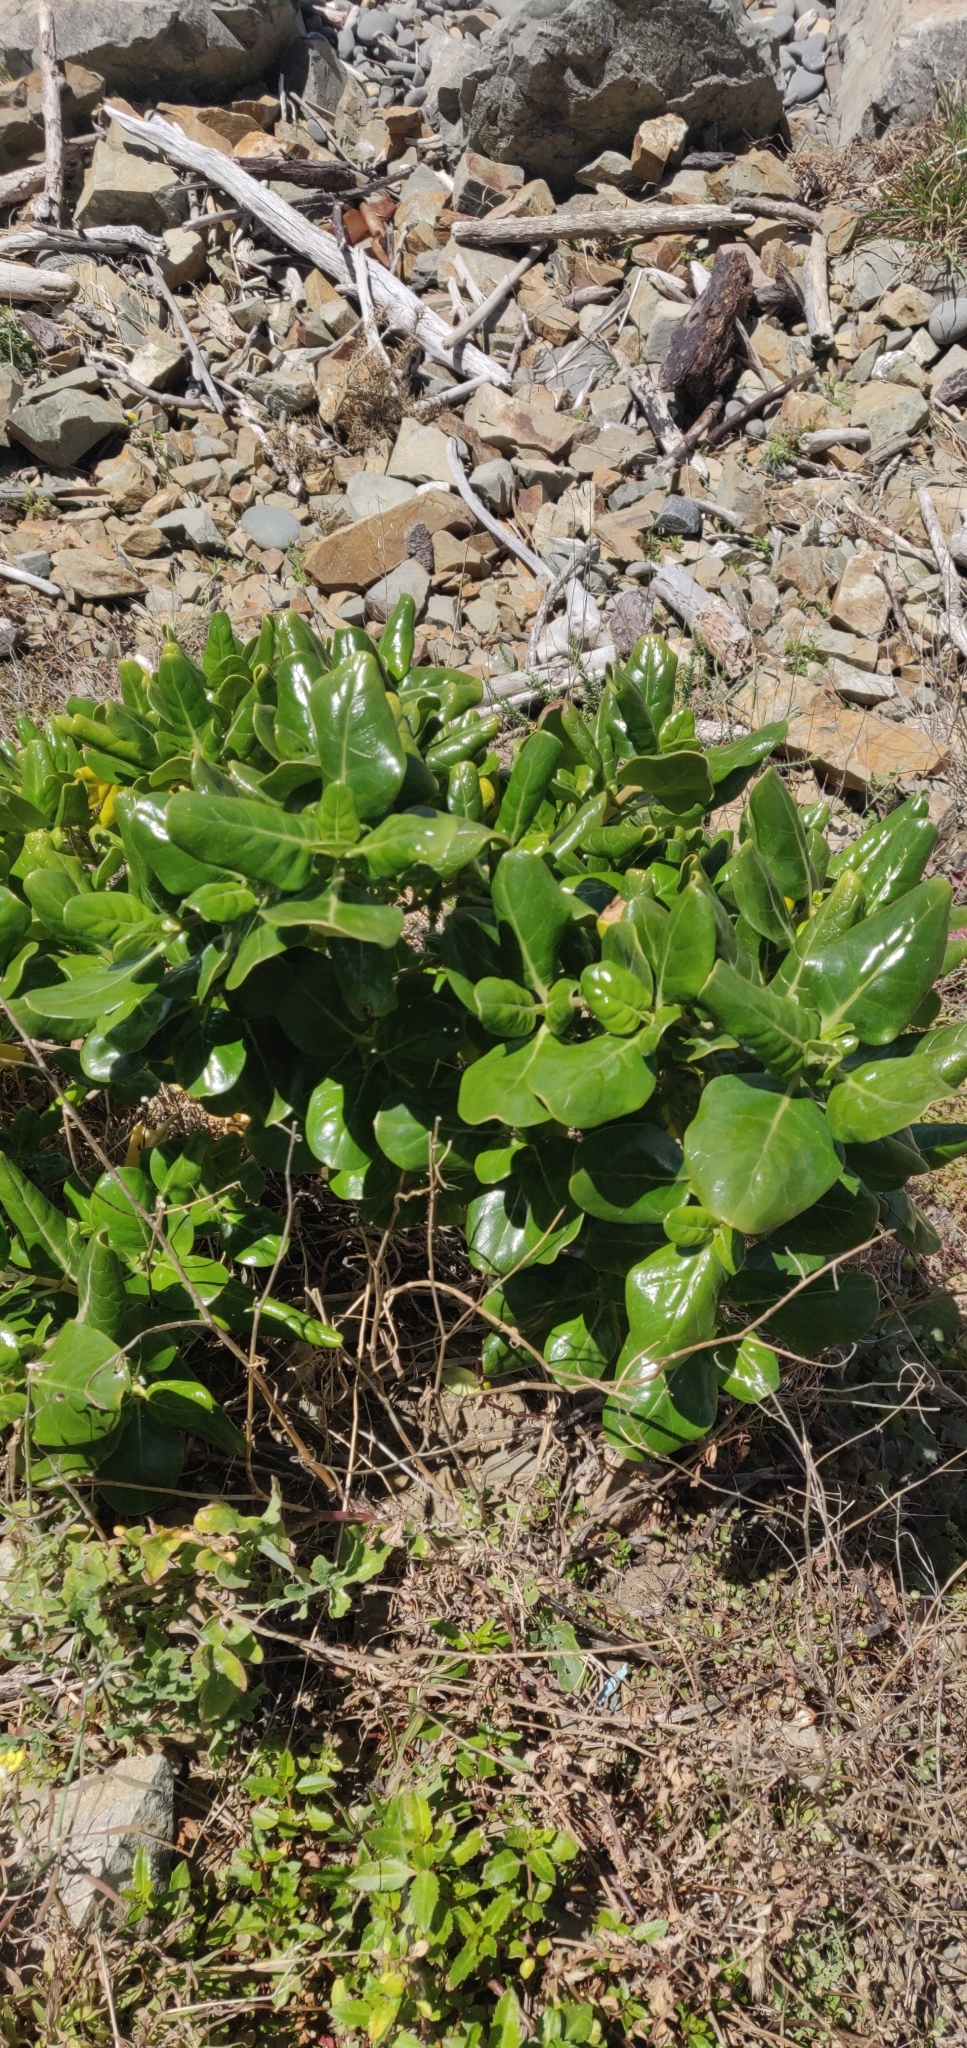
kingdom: Plantae
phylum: Tracheophyta
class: Magnoliopsida
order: Gentianales
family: Rubiaceae
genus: Coprosma
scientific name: Coprosma repens
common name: Tree bedstraw
